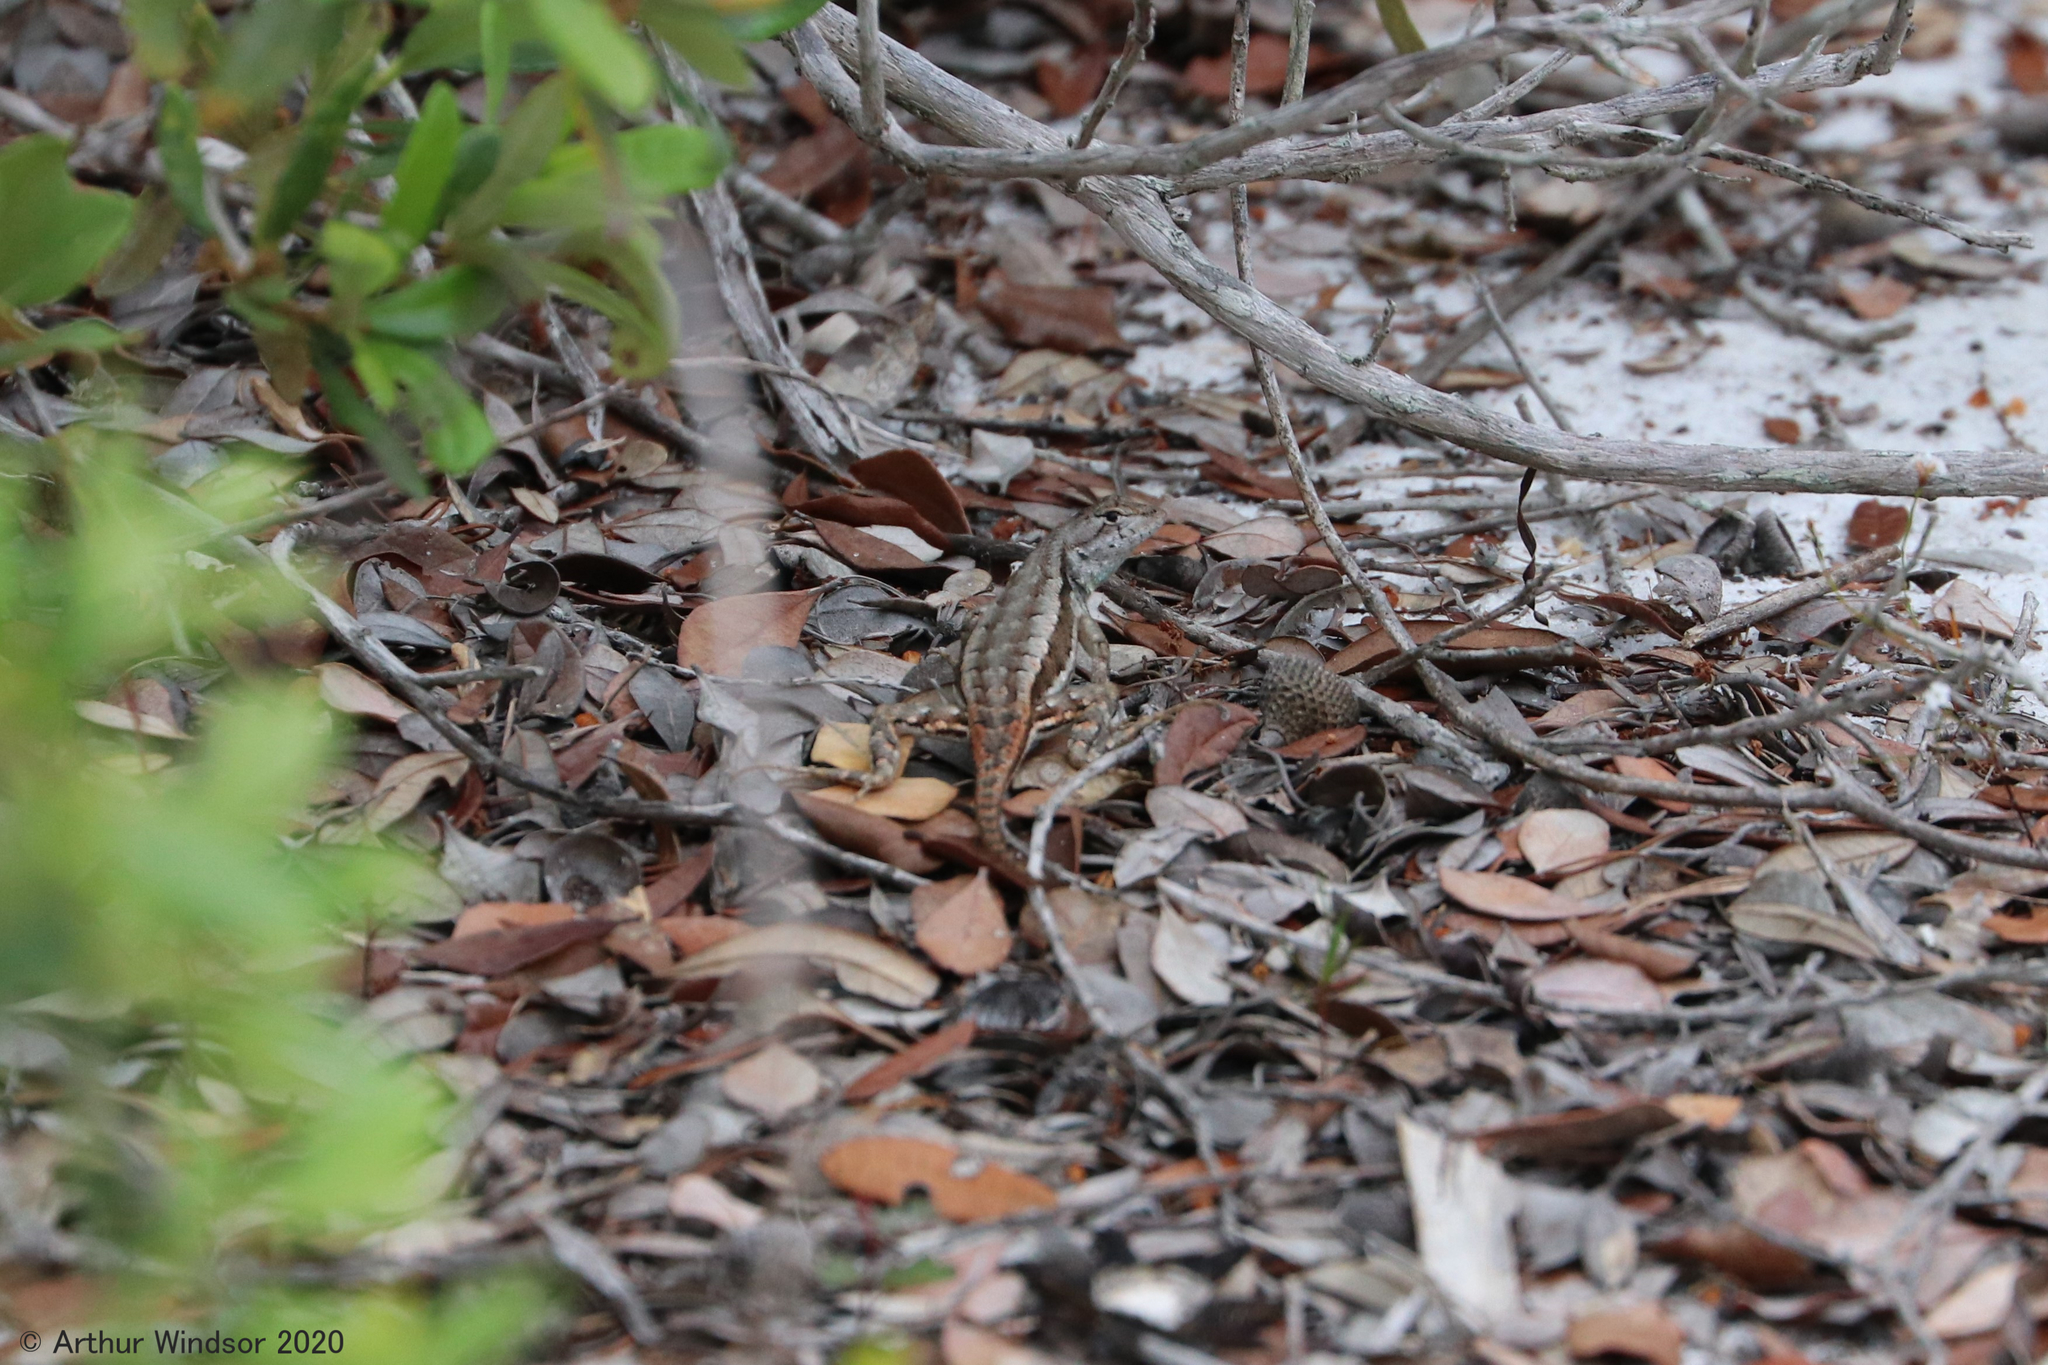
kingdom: Animalia
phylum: Chordata
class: Squamata
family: Phrynosomatidae
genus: Sceloporus
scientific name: Sceloporus woodi
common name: Florida scrub lizard
